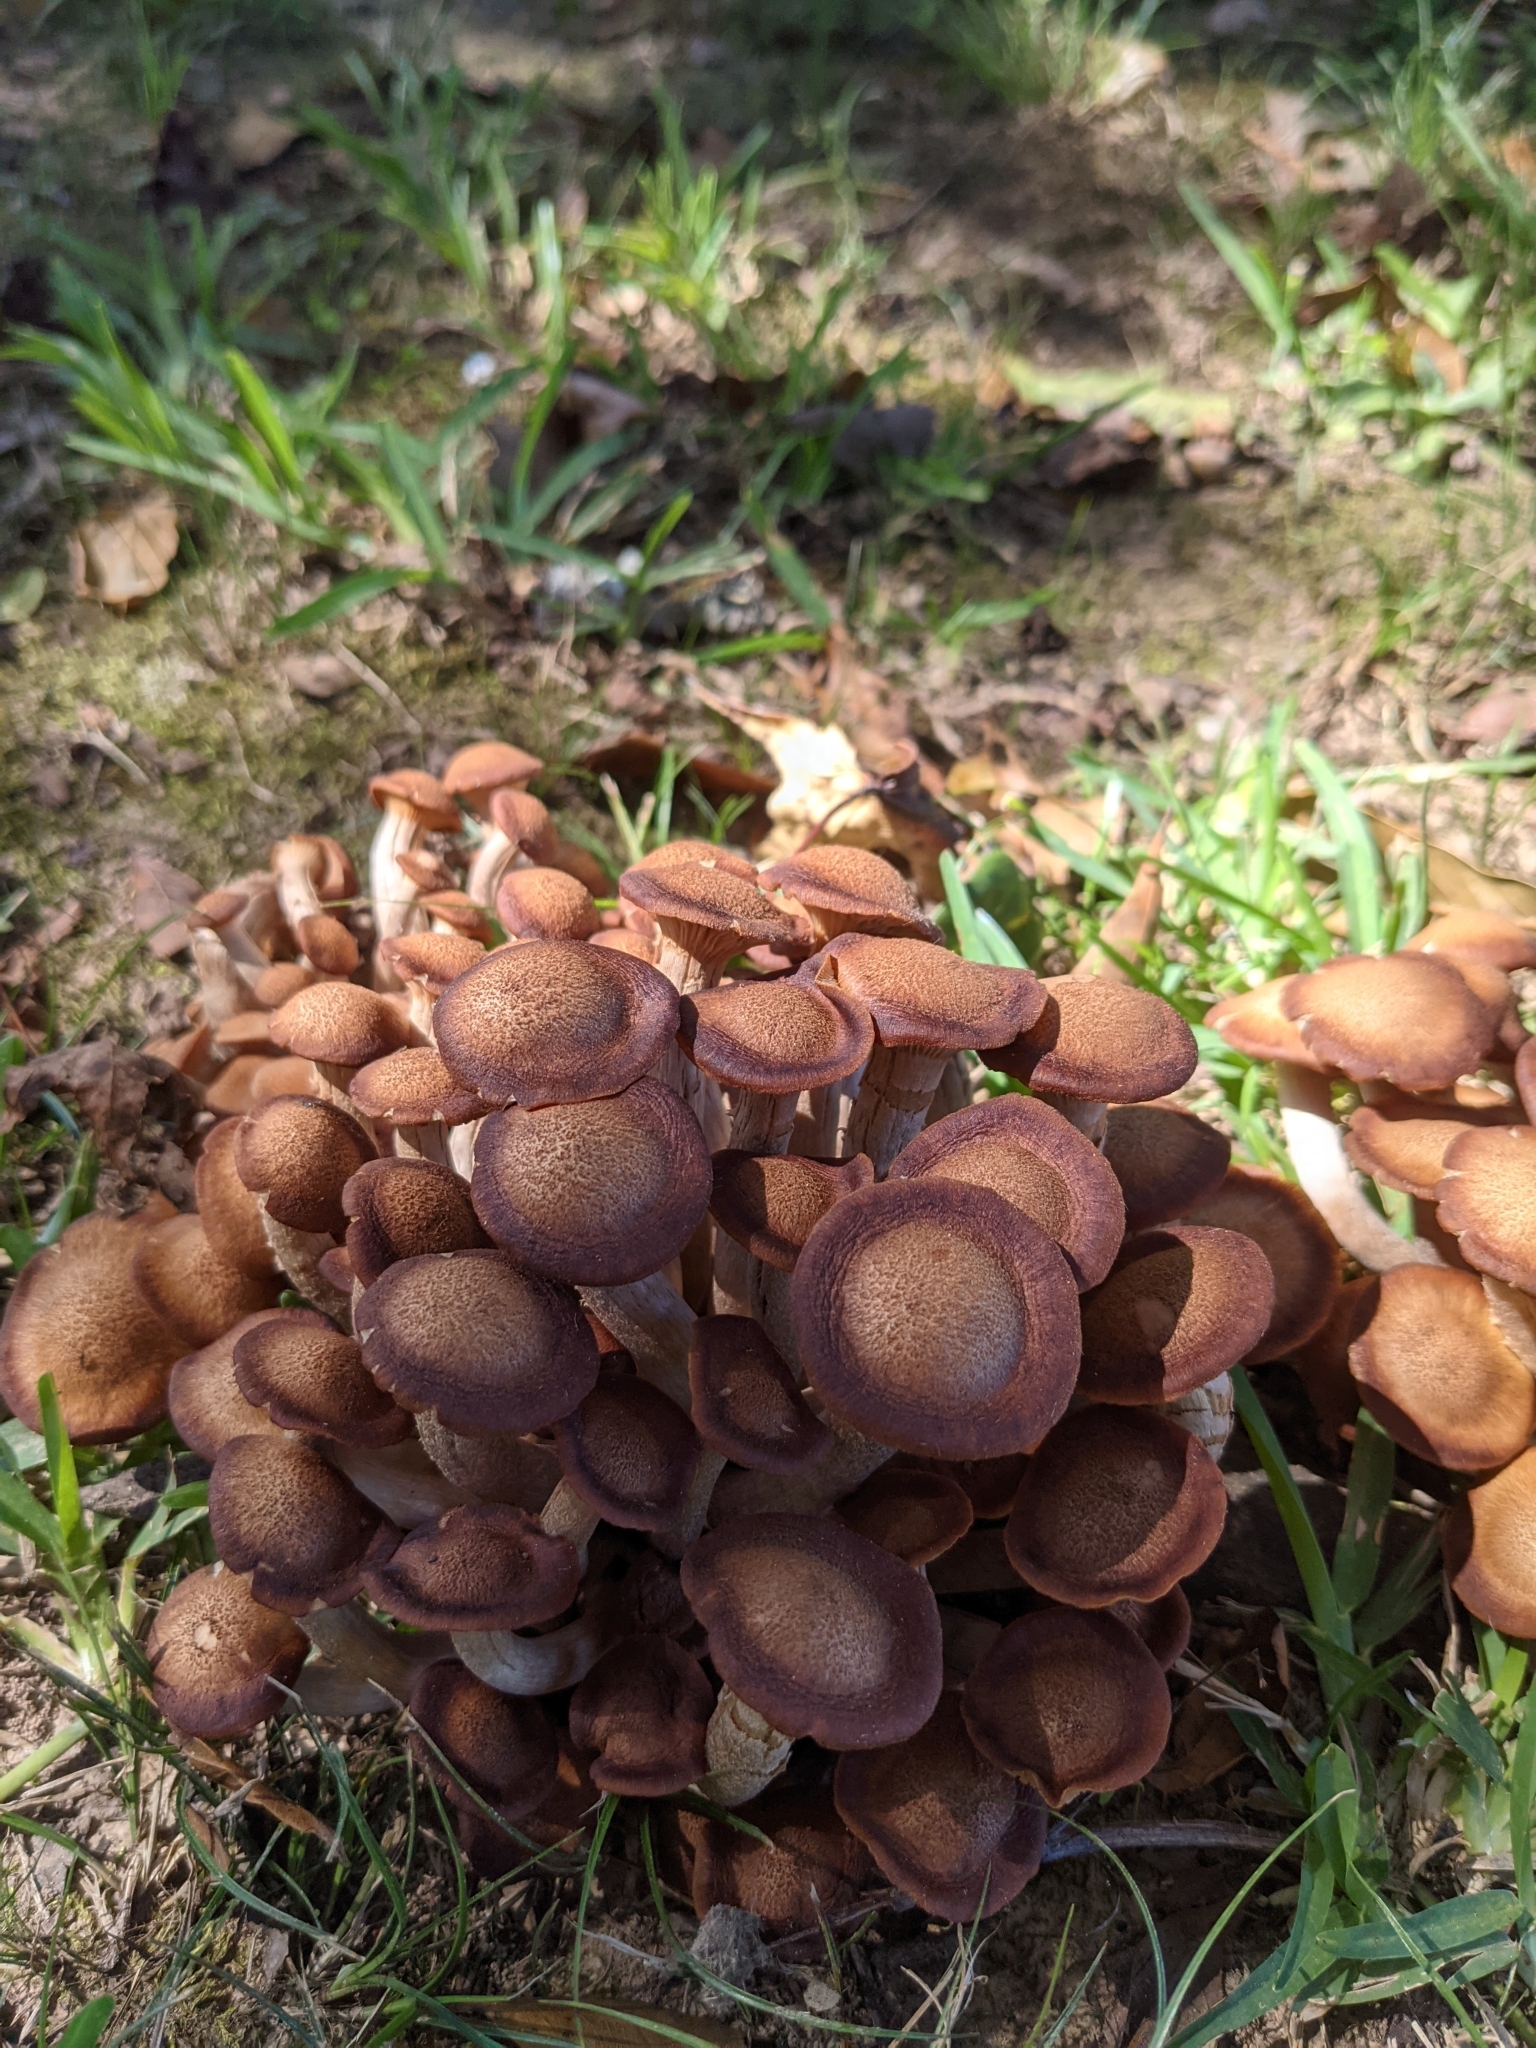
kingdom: Fungi
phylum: Basidiomycota
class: Agaricomycetes
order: Agaricales
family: Physalacriaceae
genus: Desarmillaria
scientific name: Desarmillaria caespitosa
